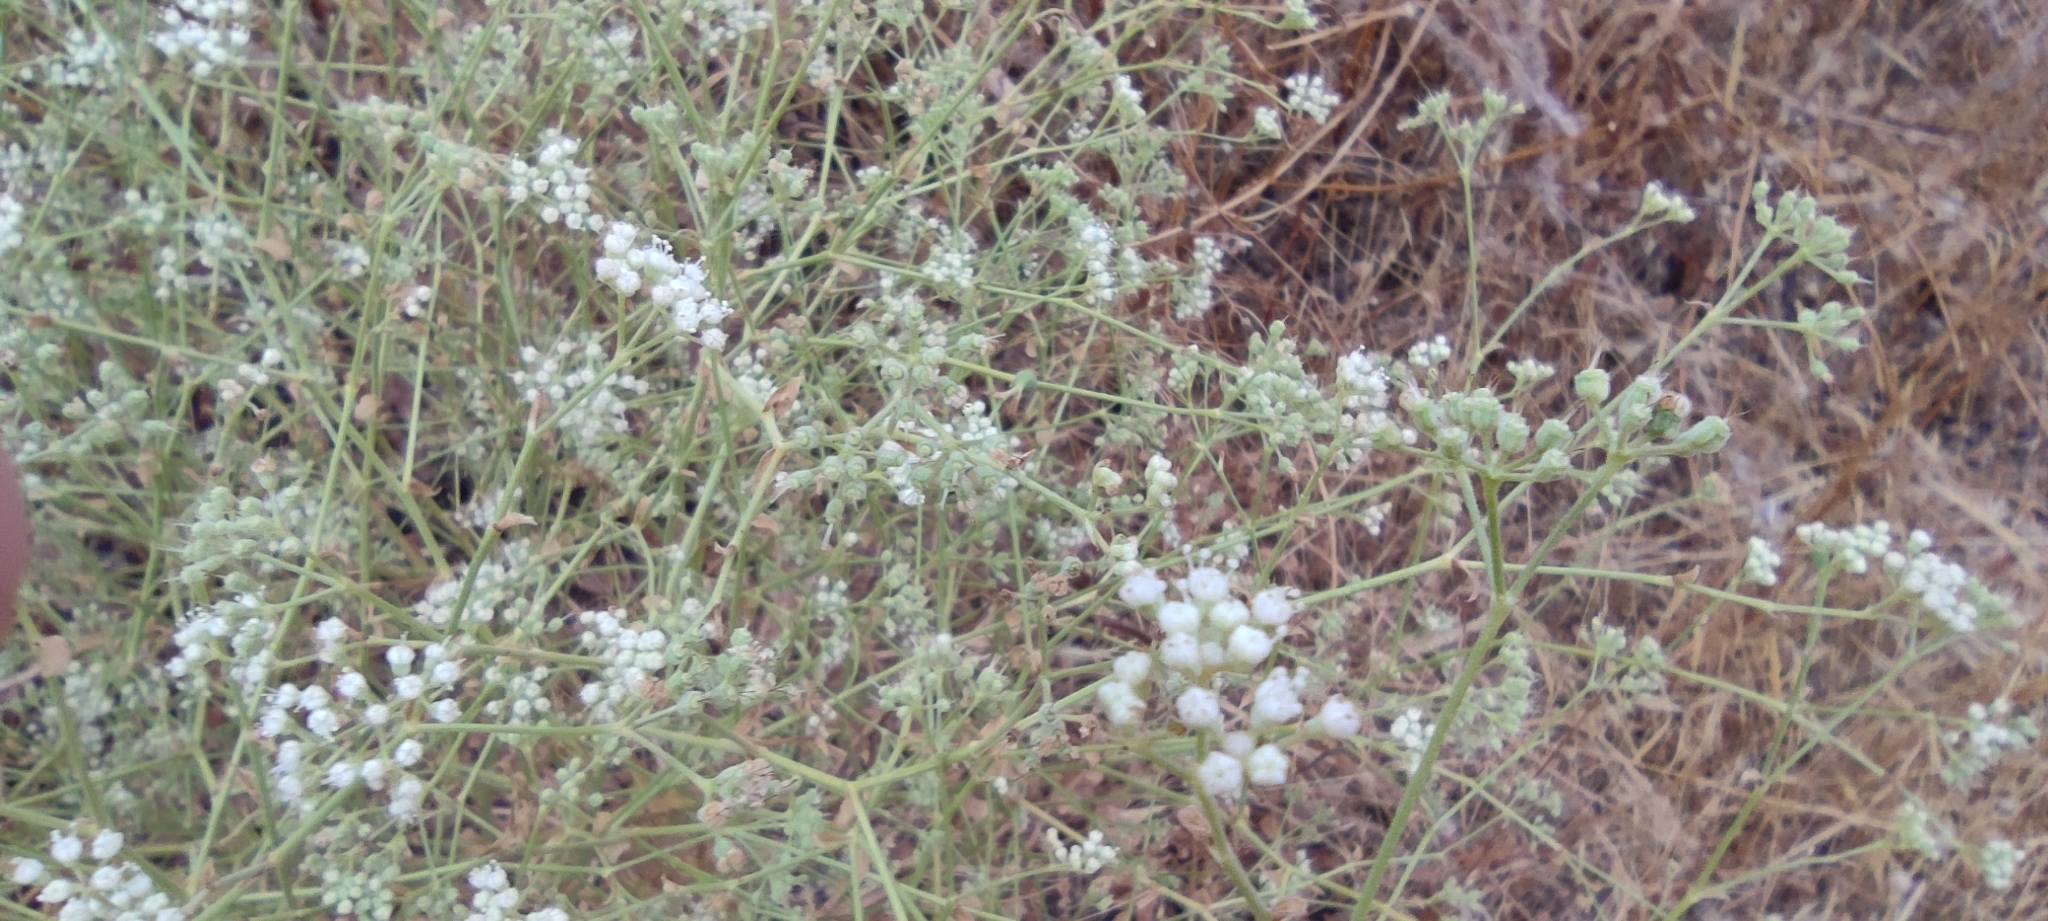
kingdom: Plantae
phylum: Tracheophyta
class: Magnoliopsida
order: Apiales
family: Apiaceae
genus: Pimpinella
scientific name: Pimpinella villosa
